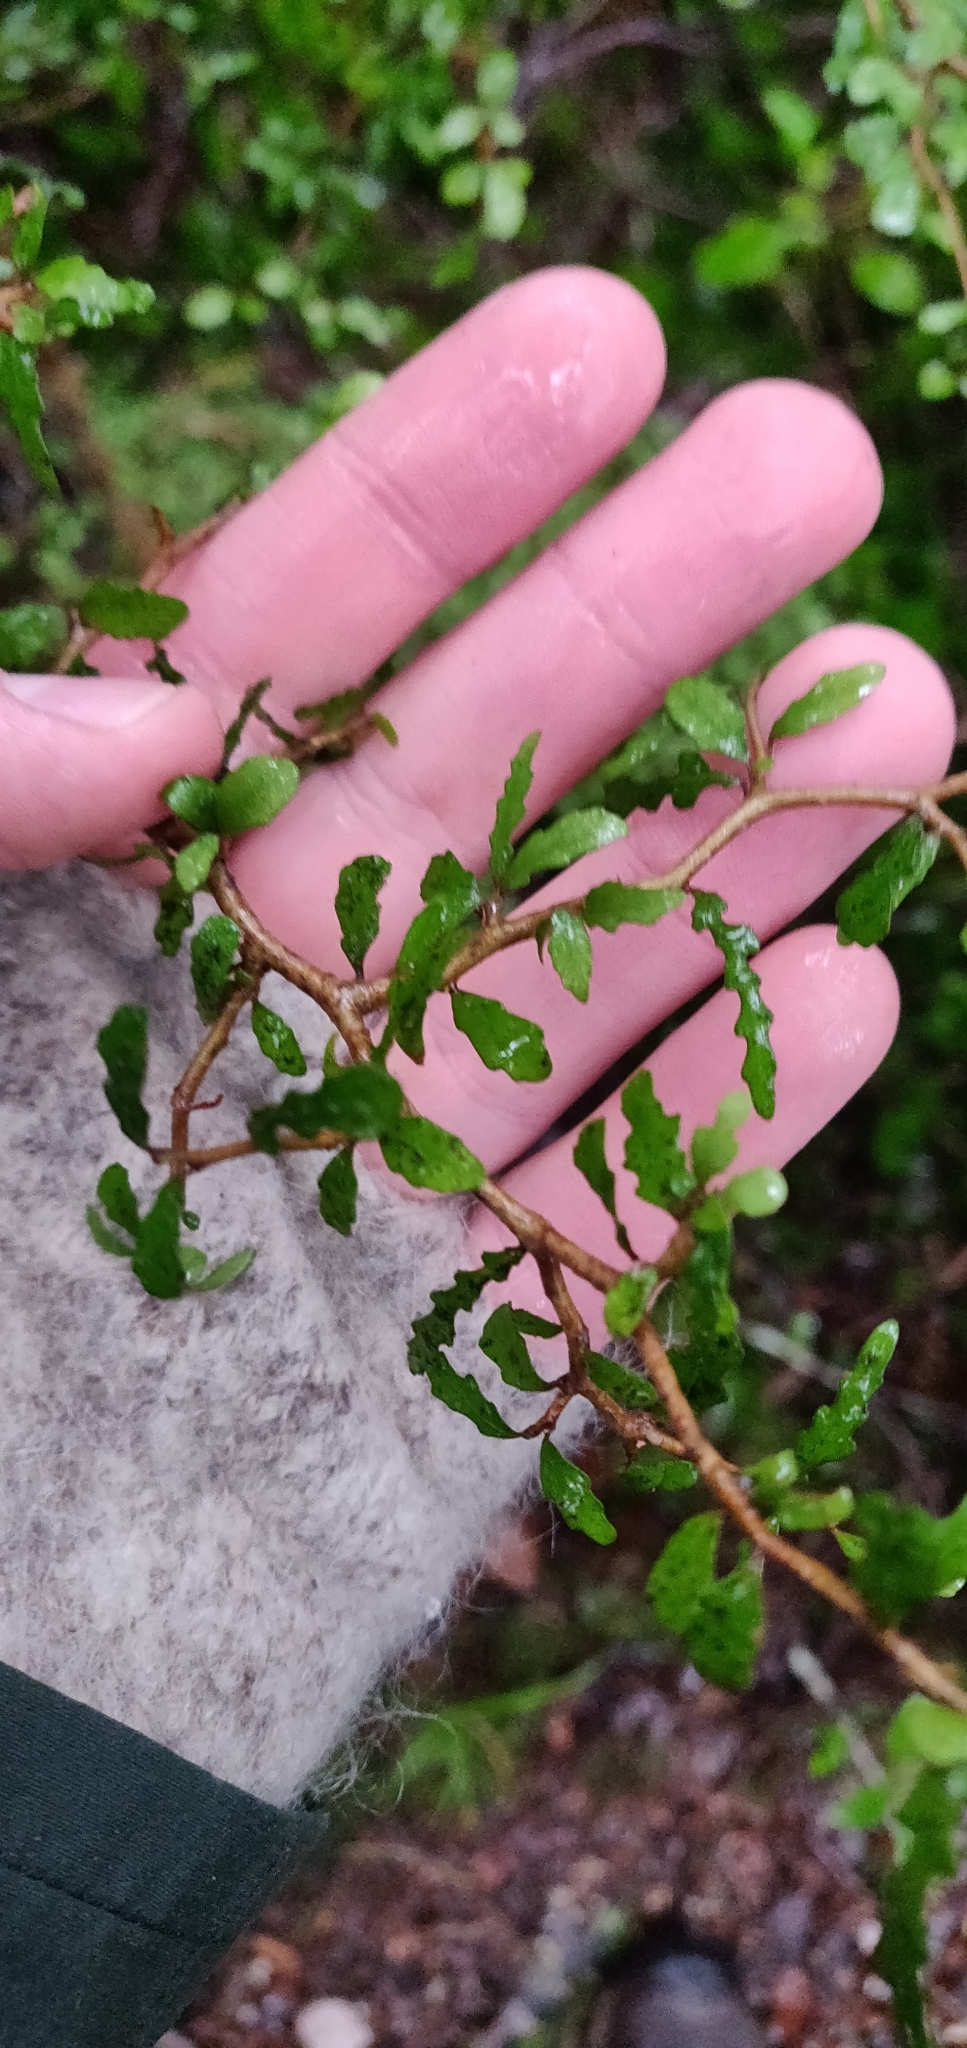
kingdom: Plantae
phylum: Tracheophyta
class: Magnoliopsida
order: Oxalidales
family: Elaeocarpaceae
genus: Elaeocarpus
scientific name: Elaeocarpus hookerianus
